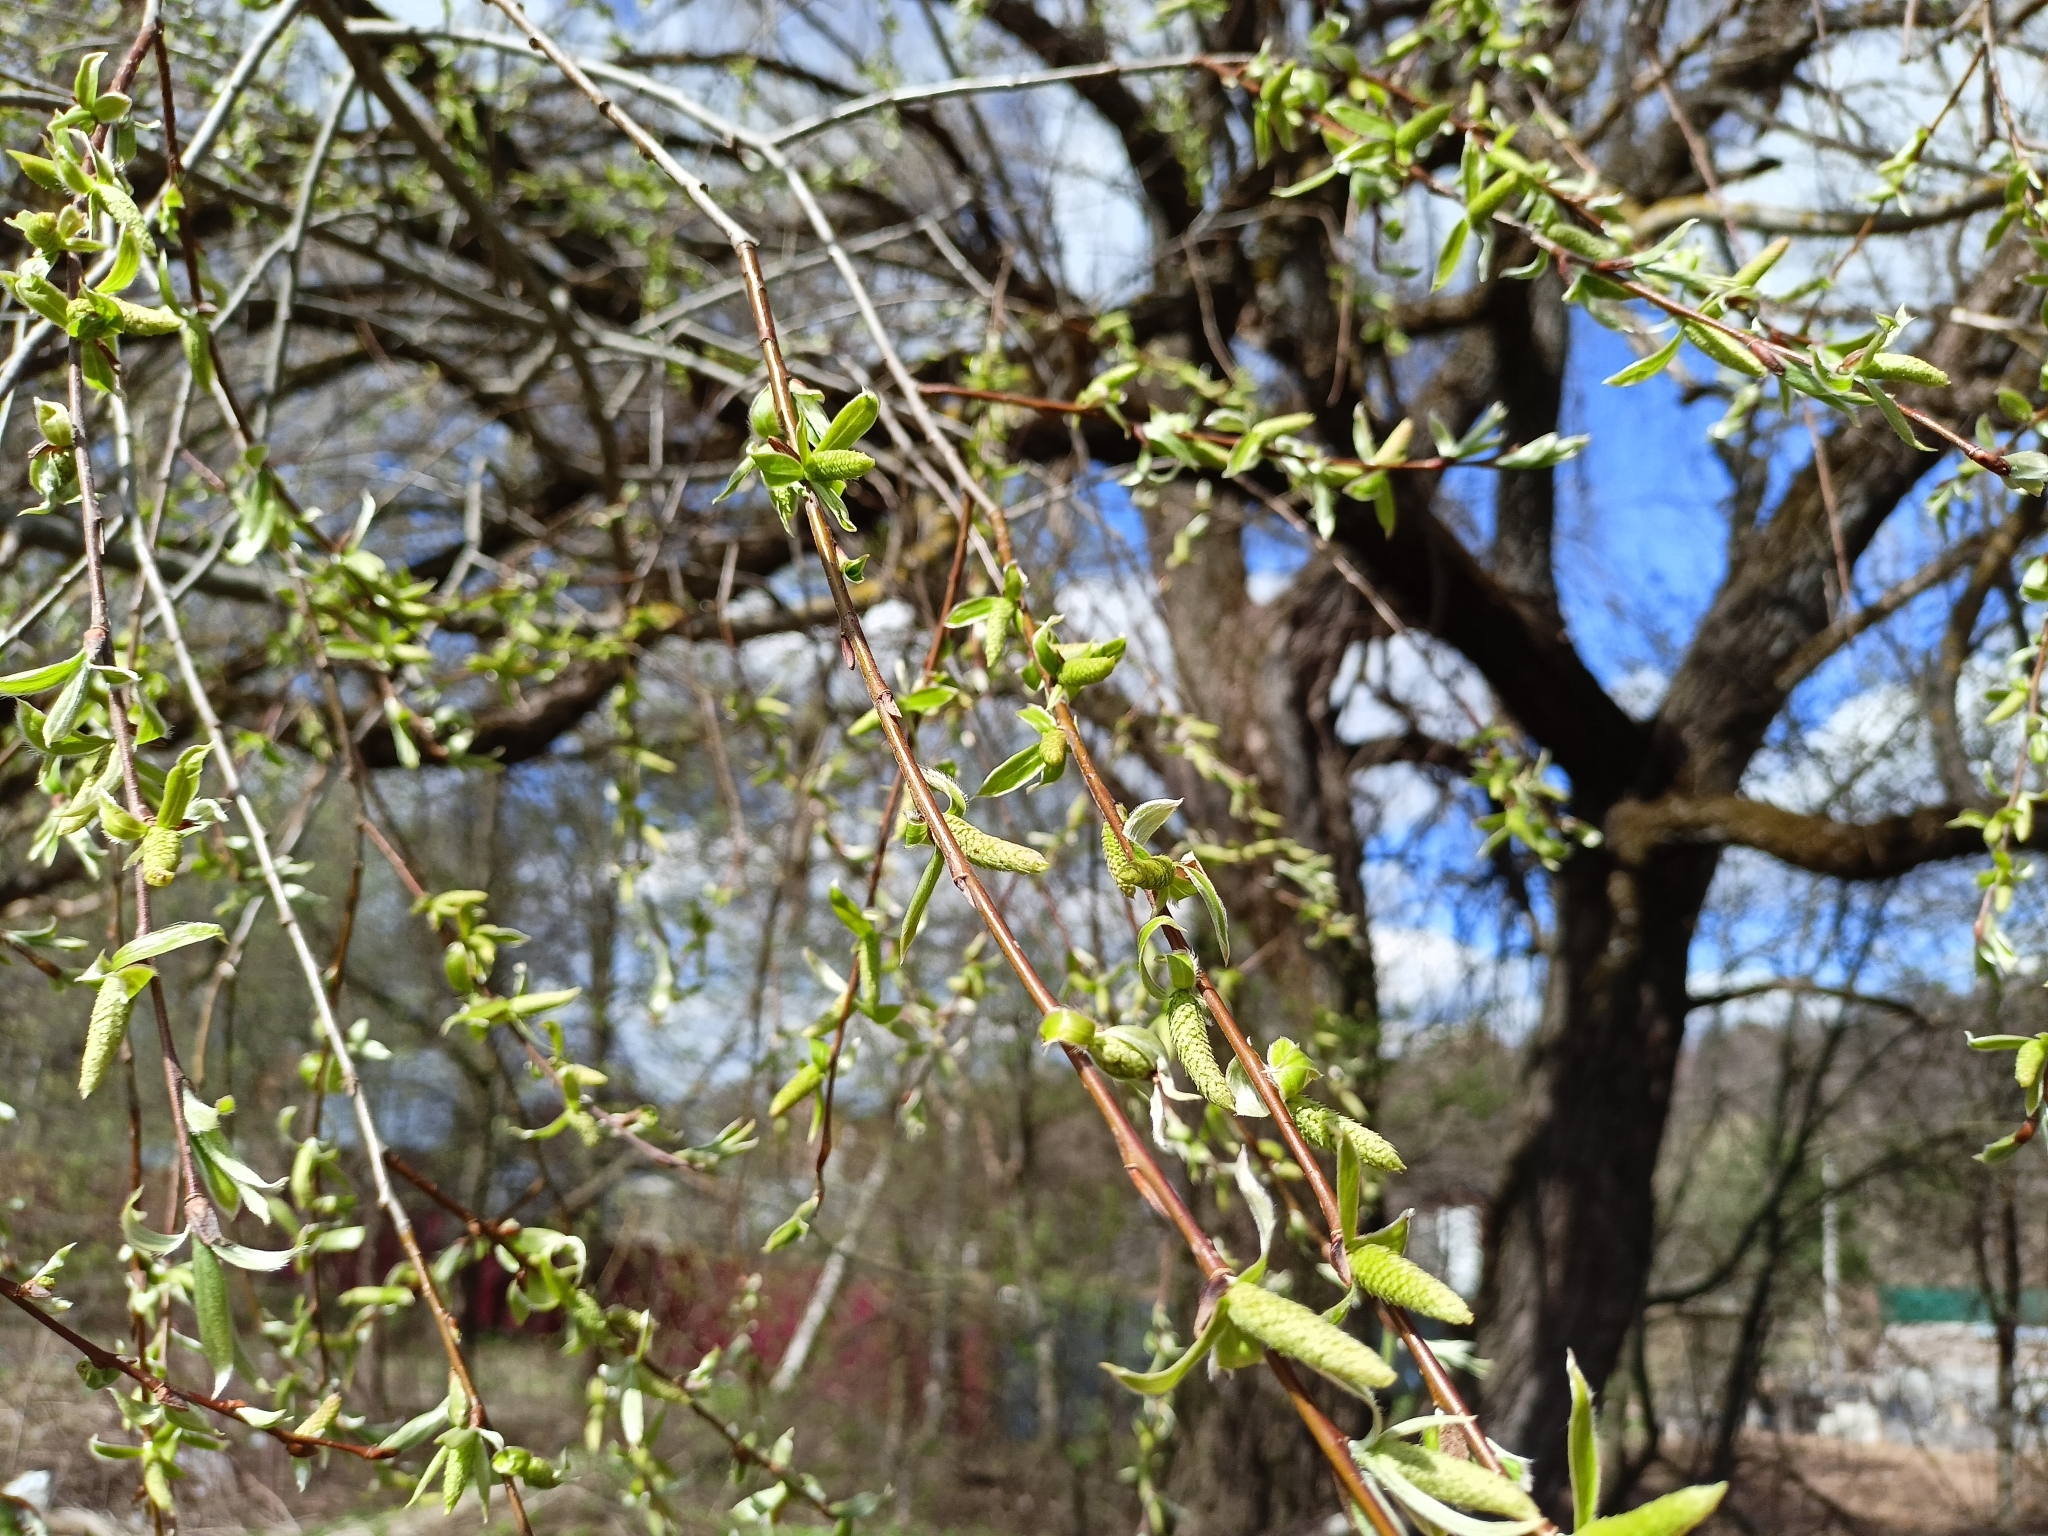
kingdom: Plantae
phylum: Tracheophyta
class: Magnoliopsida
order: Malpighiales
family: Salicaceae
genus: Salix
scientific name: Salix alba
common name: White willow
